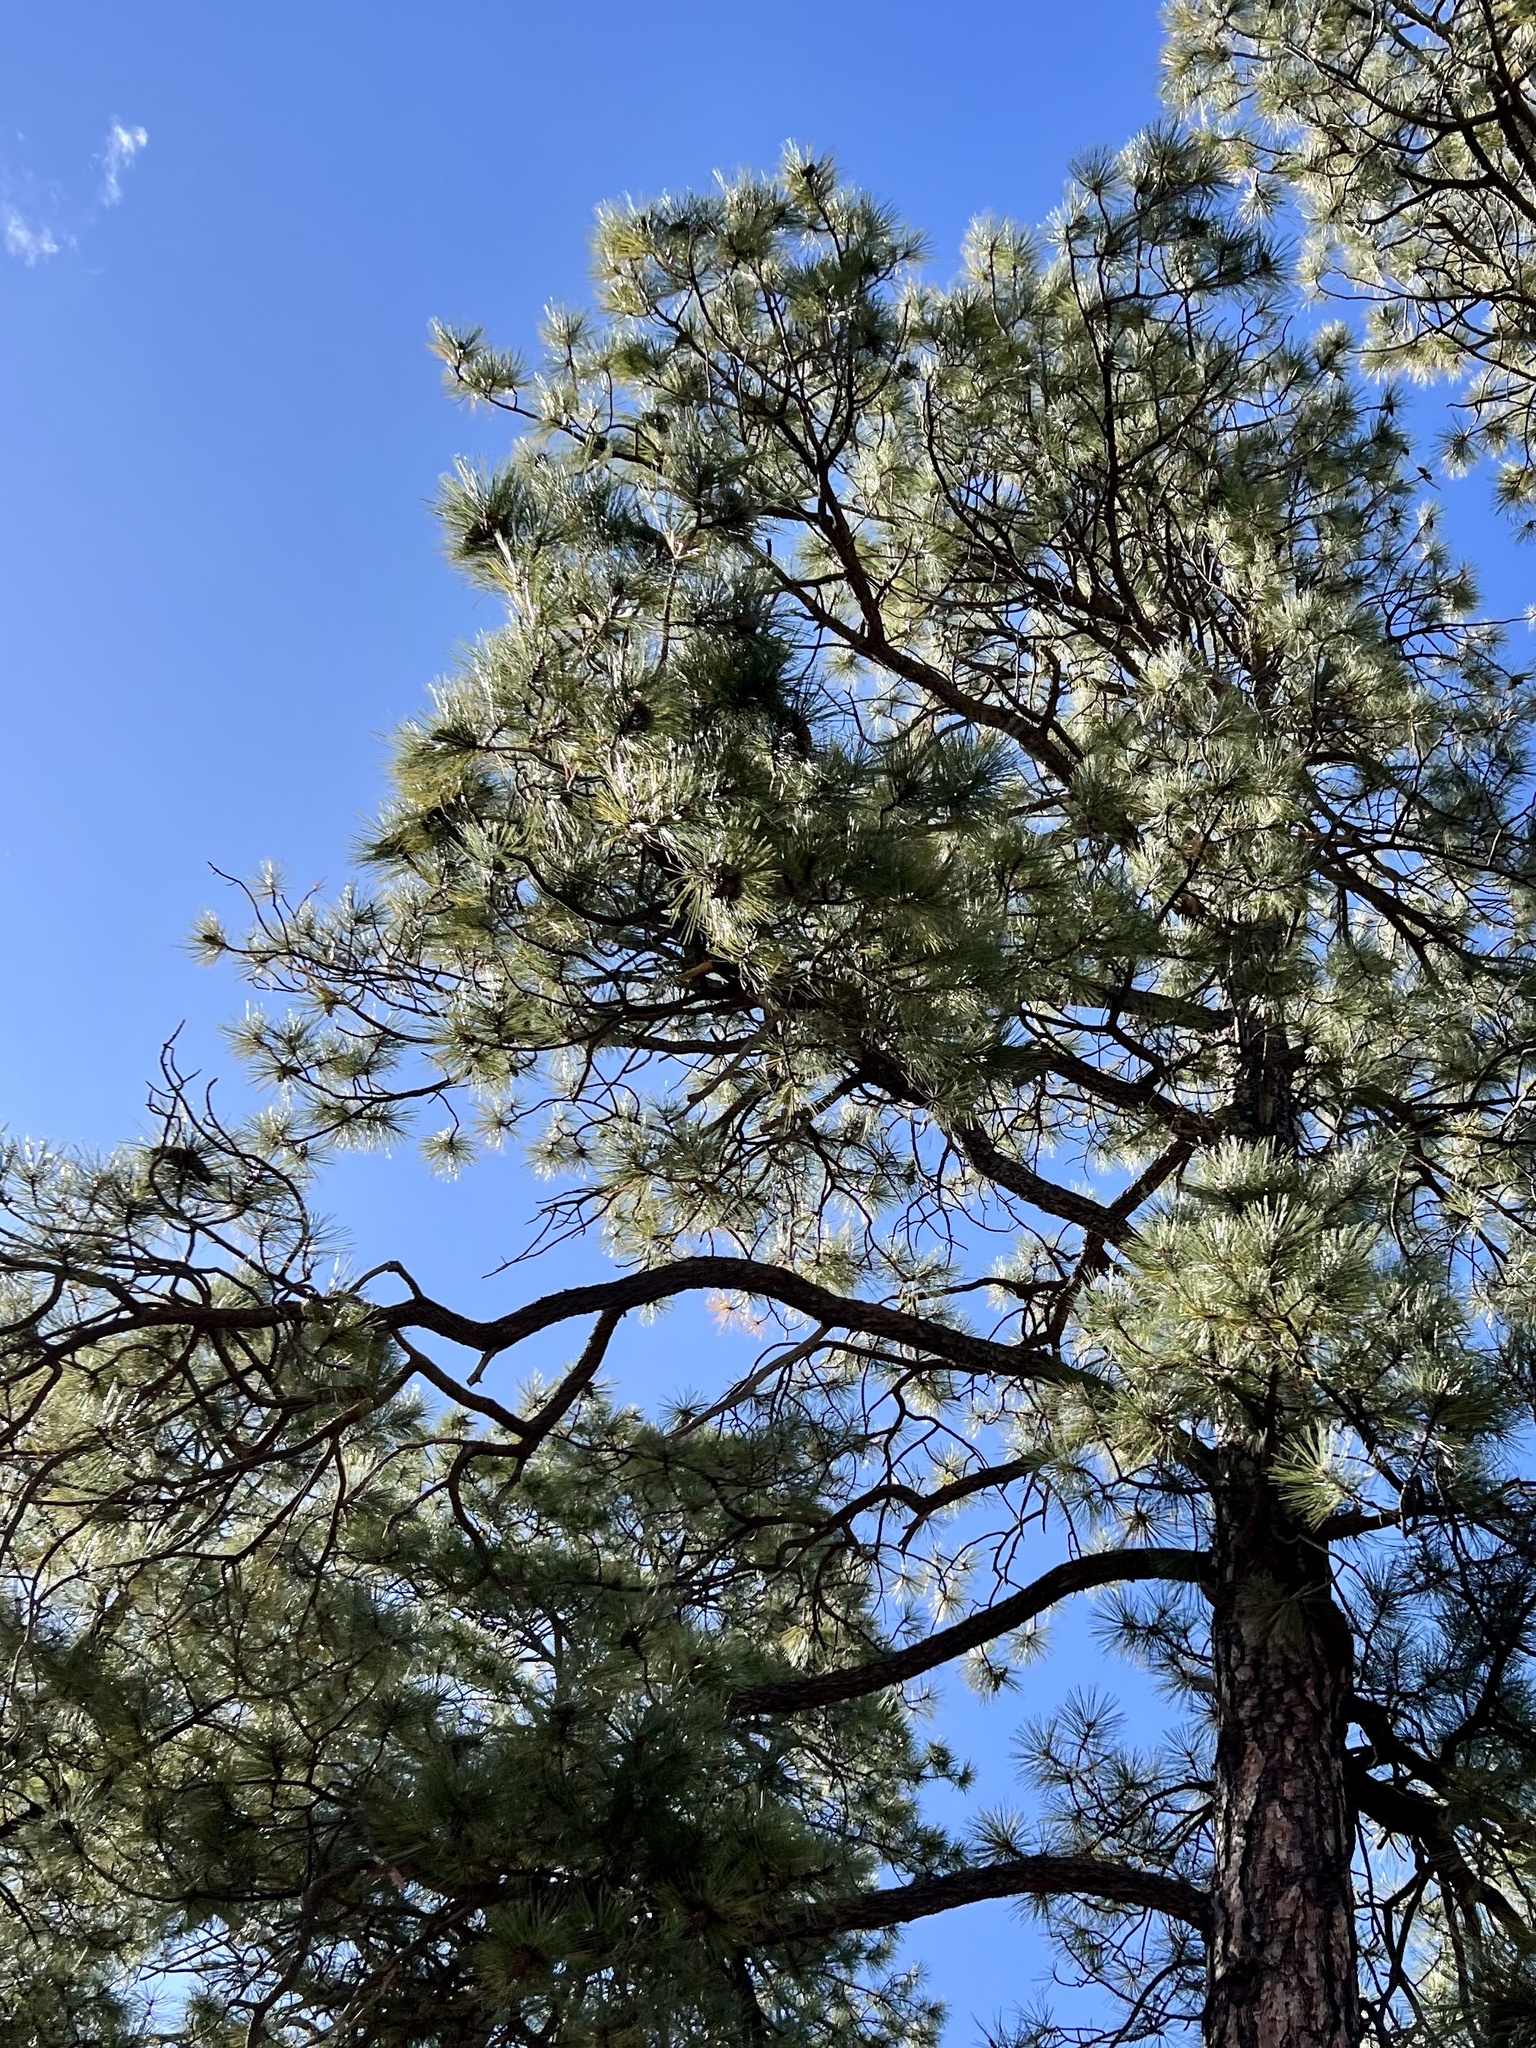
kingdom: Plantae
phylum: Tracheophyta
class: Pinopsida
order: Pinales
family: Pinaceae
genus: Pinus
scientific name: Pinus ponderosa
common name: Western yellow-pine
